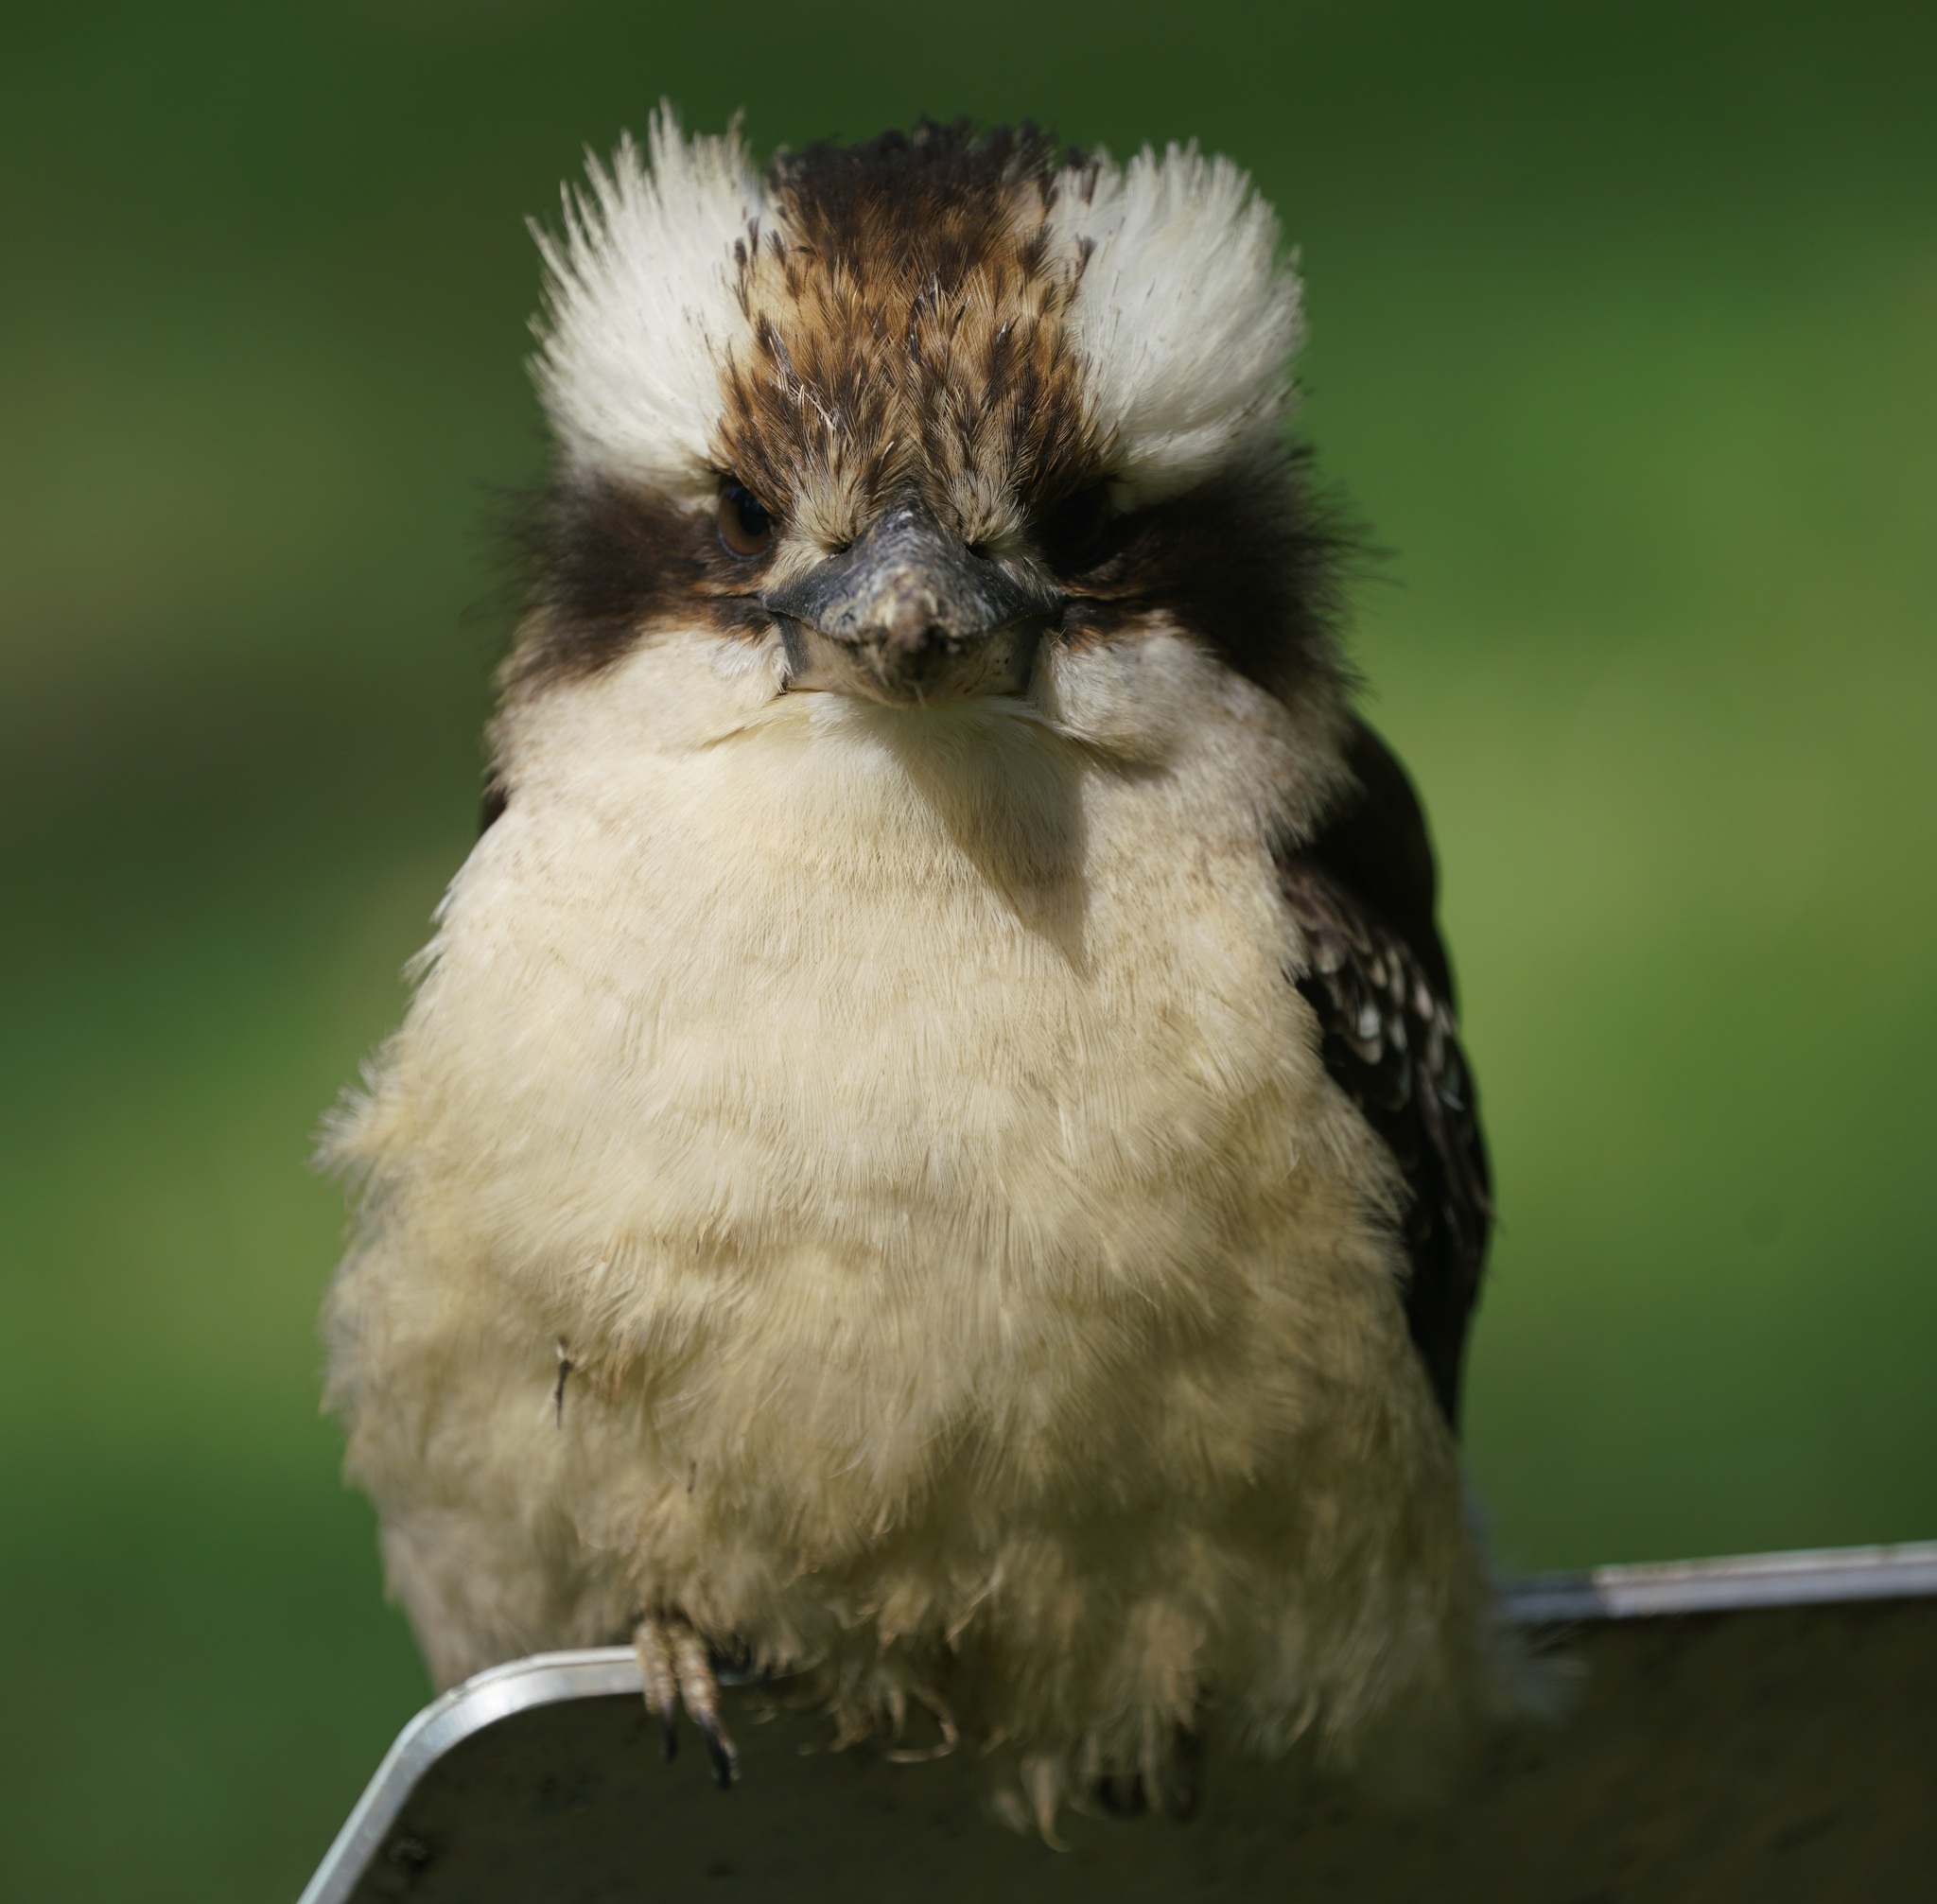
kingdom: Animalia
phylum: Chordata
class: Aves
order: Coraciiformes
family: Alcedinidae
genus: Dacelo
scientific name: Dacelo novaeguineae
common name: Laughing kookaburra
